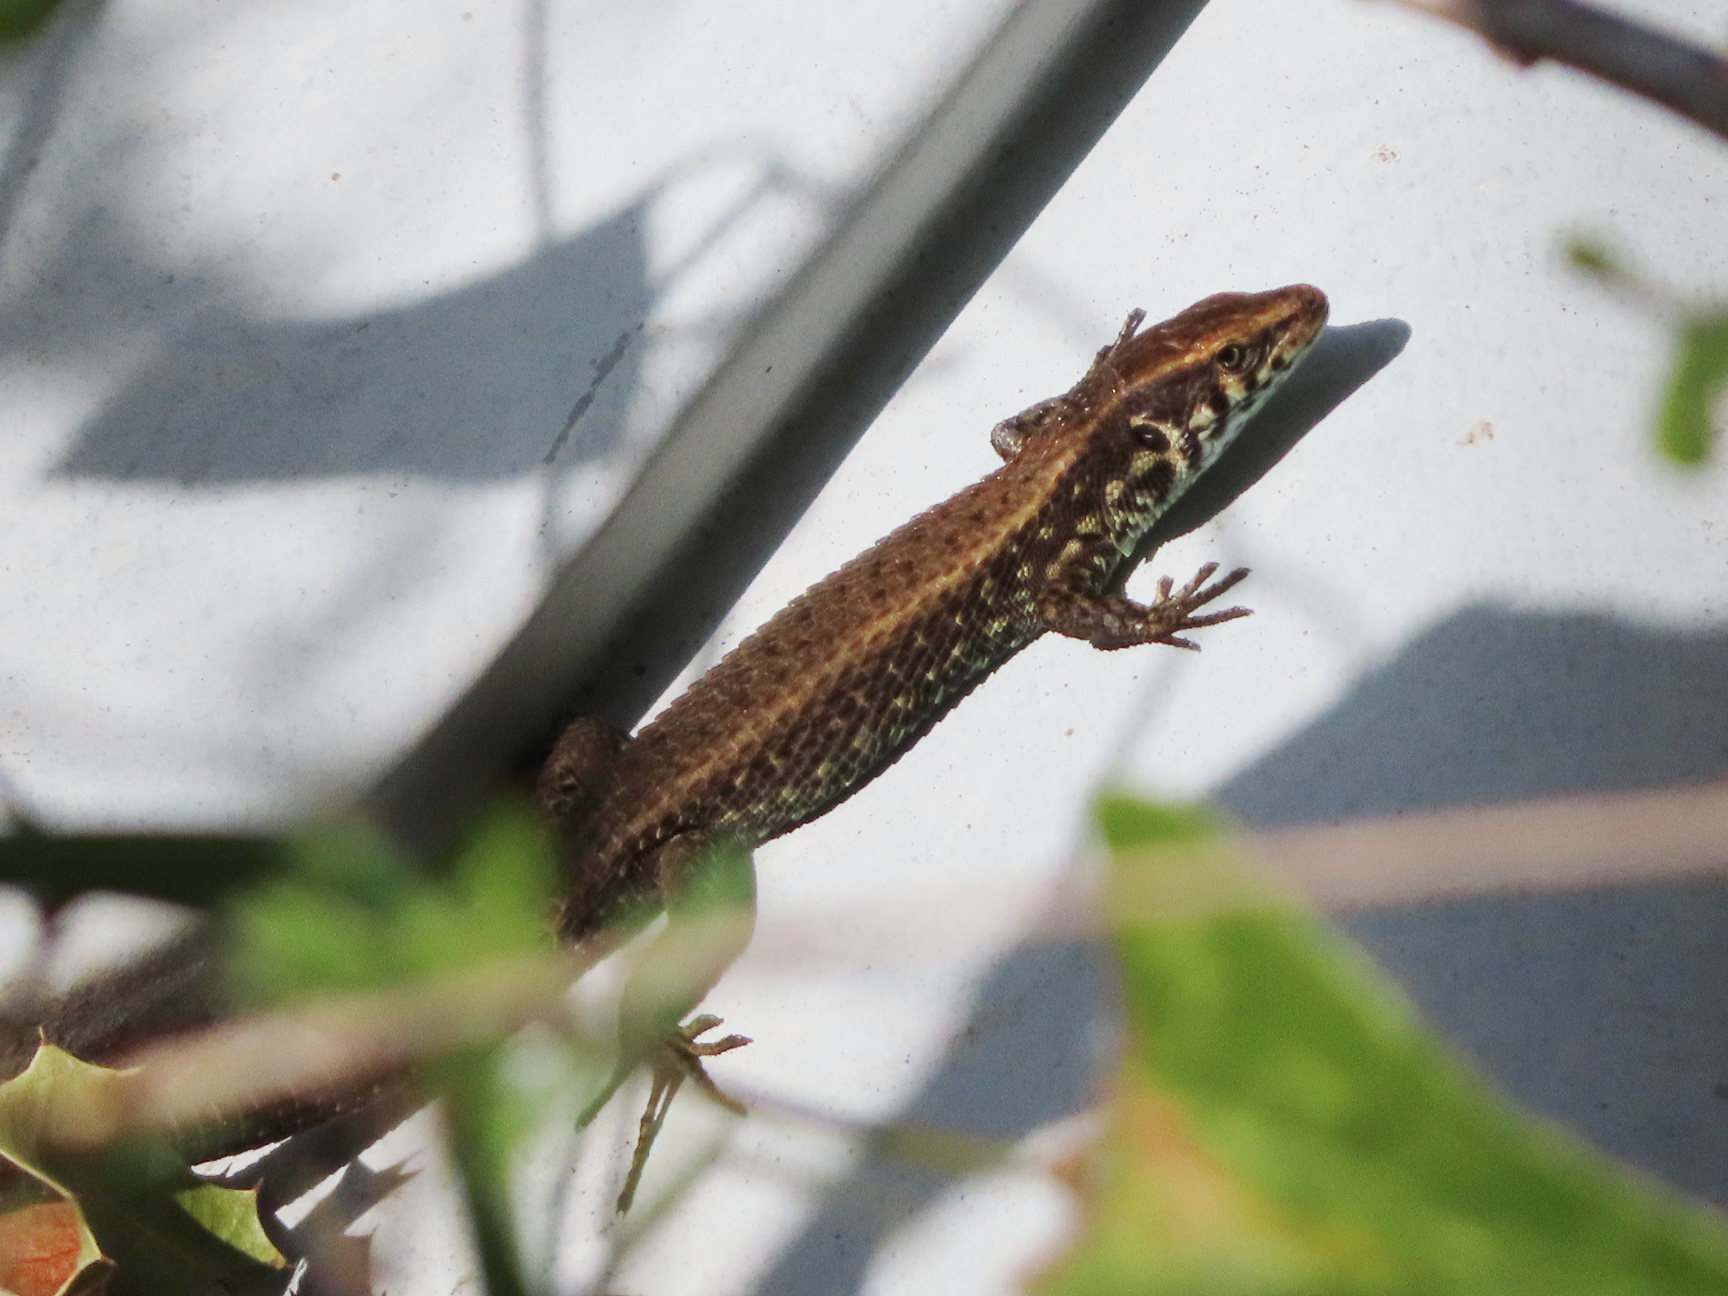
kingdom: Animalia
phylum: Chordata
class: Squamata
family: Lacertidae
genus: Algyroides
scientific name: Algyroides moreoticus
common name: Greek algyroides
